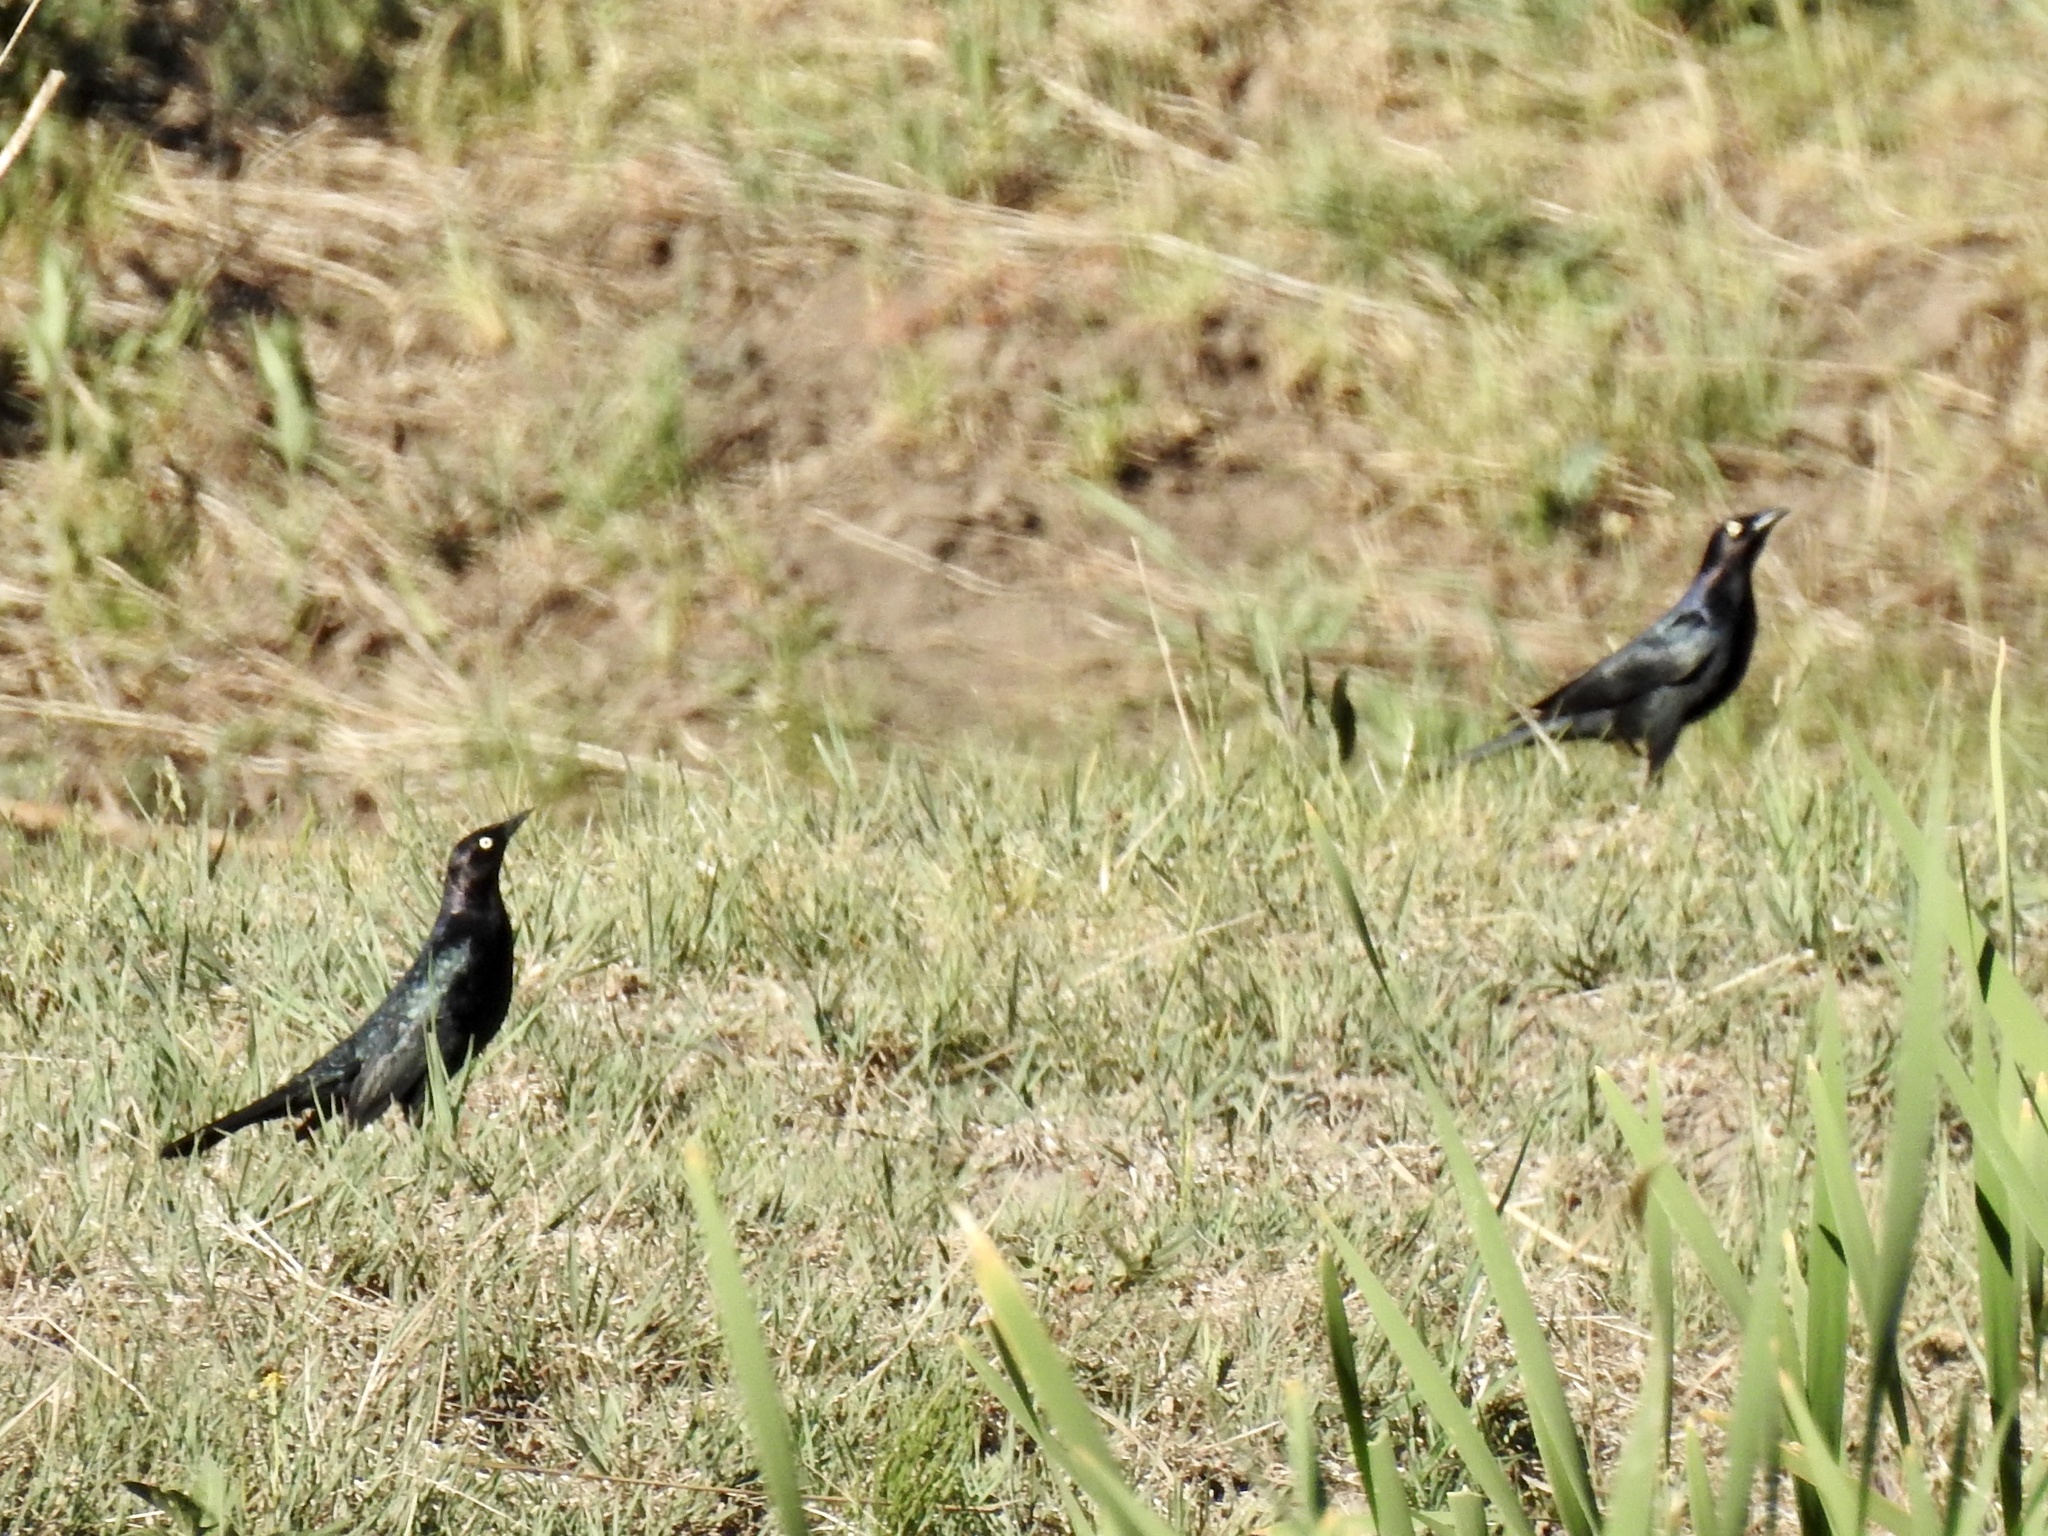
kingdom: Animalia
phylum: Chordata
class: Aves
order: Passeriformes
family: Icteridae
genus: Euphagus
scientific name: Euphagus cyanocephalus
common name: Brewer's blackbird
